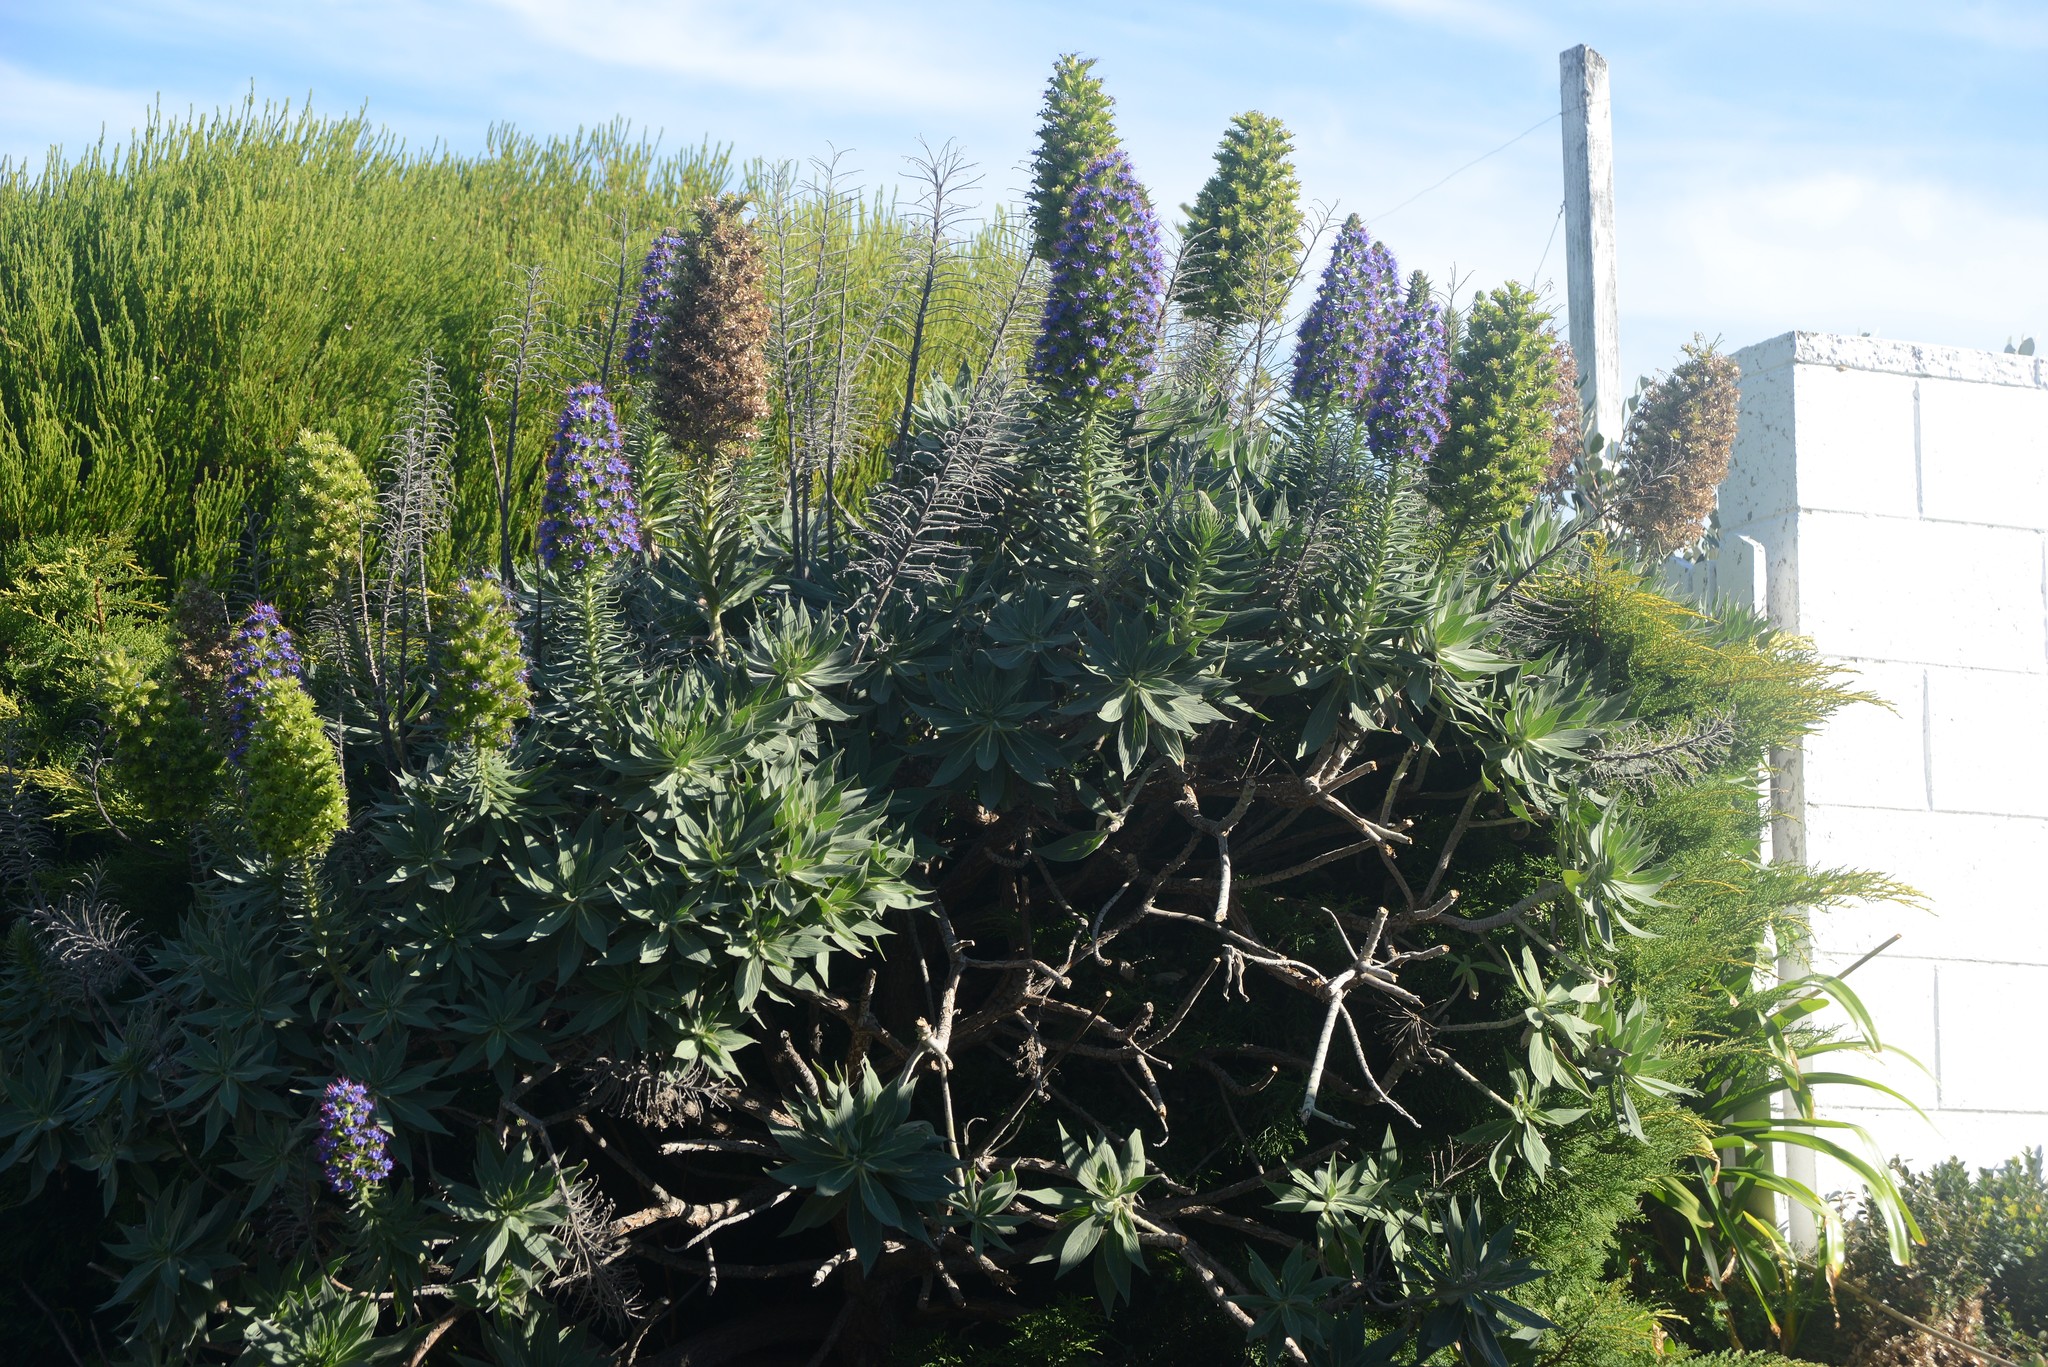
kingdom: Plantae
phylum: Tracheophyta
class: Magnoliopsida
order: Boraginales
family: Boraginaceae
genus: Echium
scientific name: Echium candicans
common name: Pride of madeira
